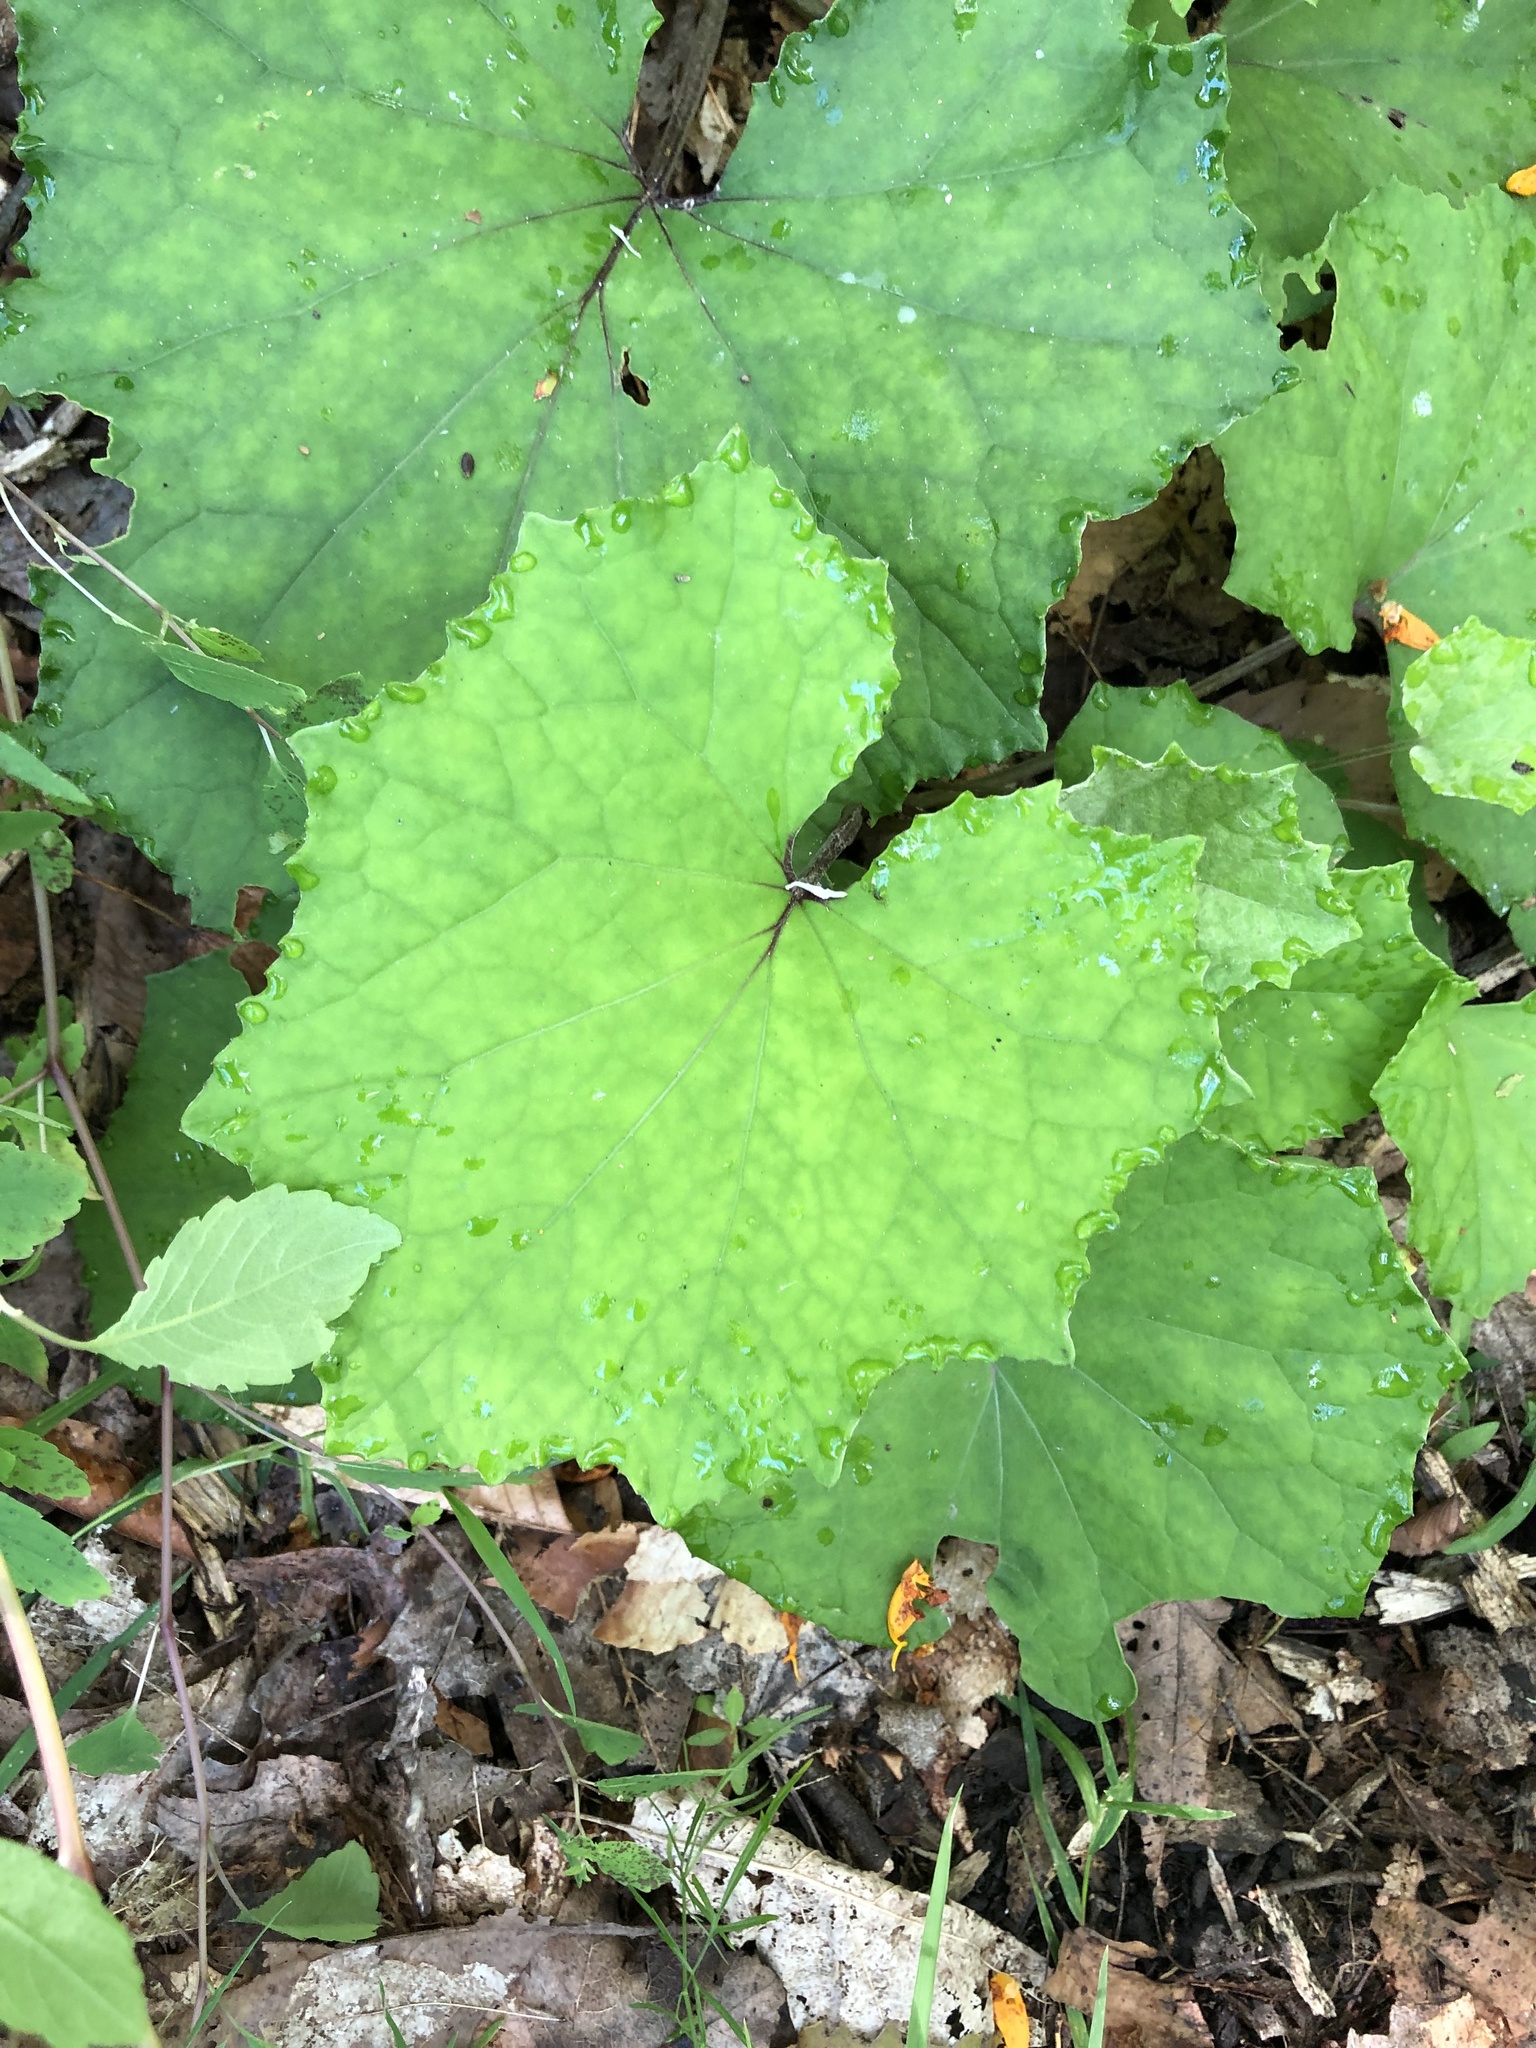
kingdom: Plantae
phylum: Tracheophyta
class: Magnoliopsida
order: Asterales
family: Asteraceae
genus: Tussilago
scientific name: Tussilago farfara
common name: Coltsfoot
